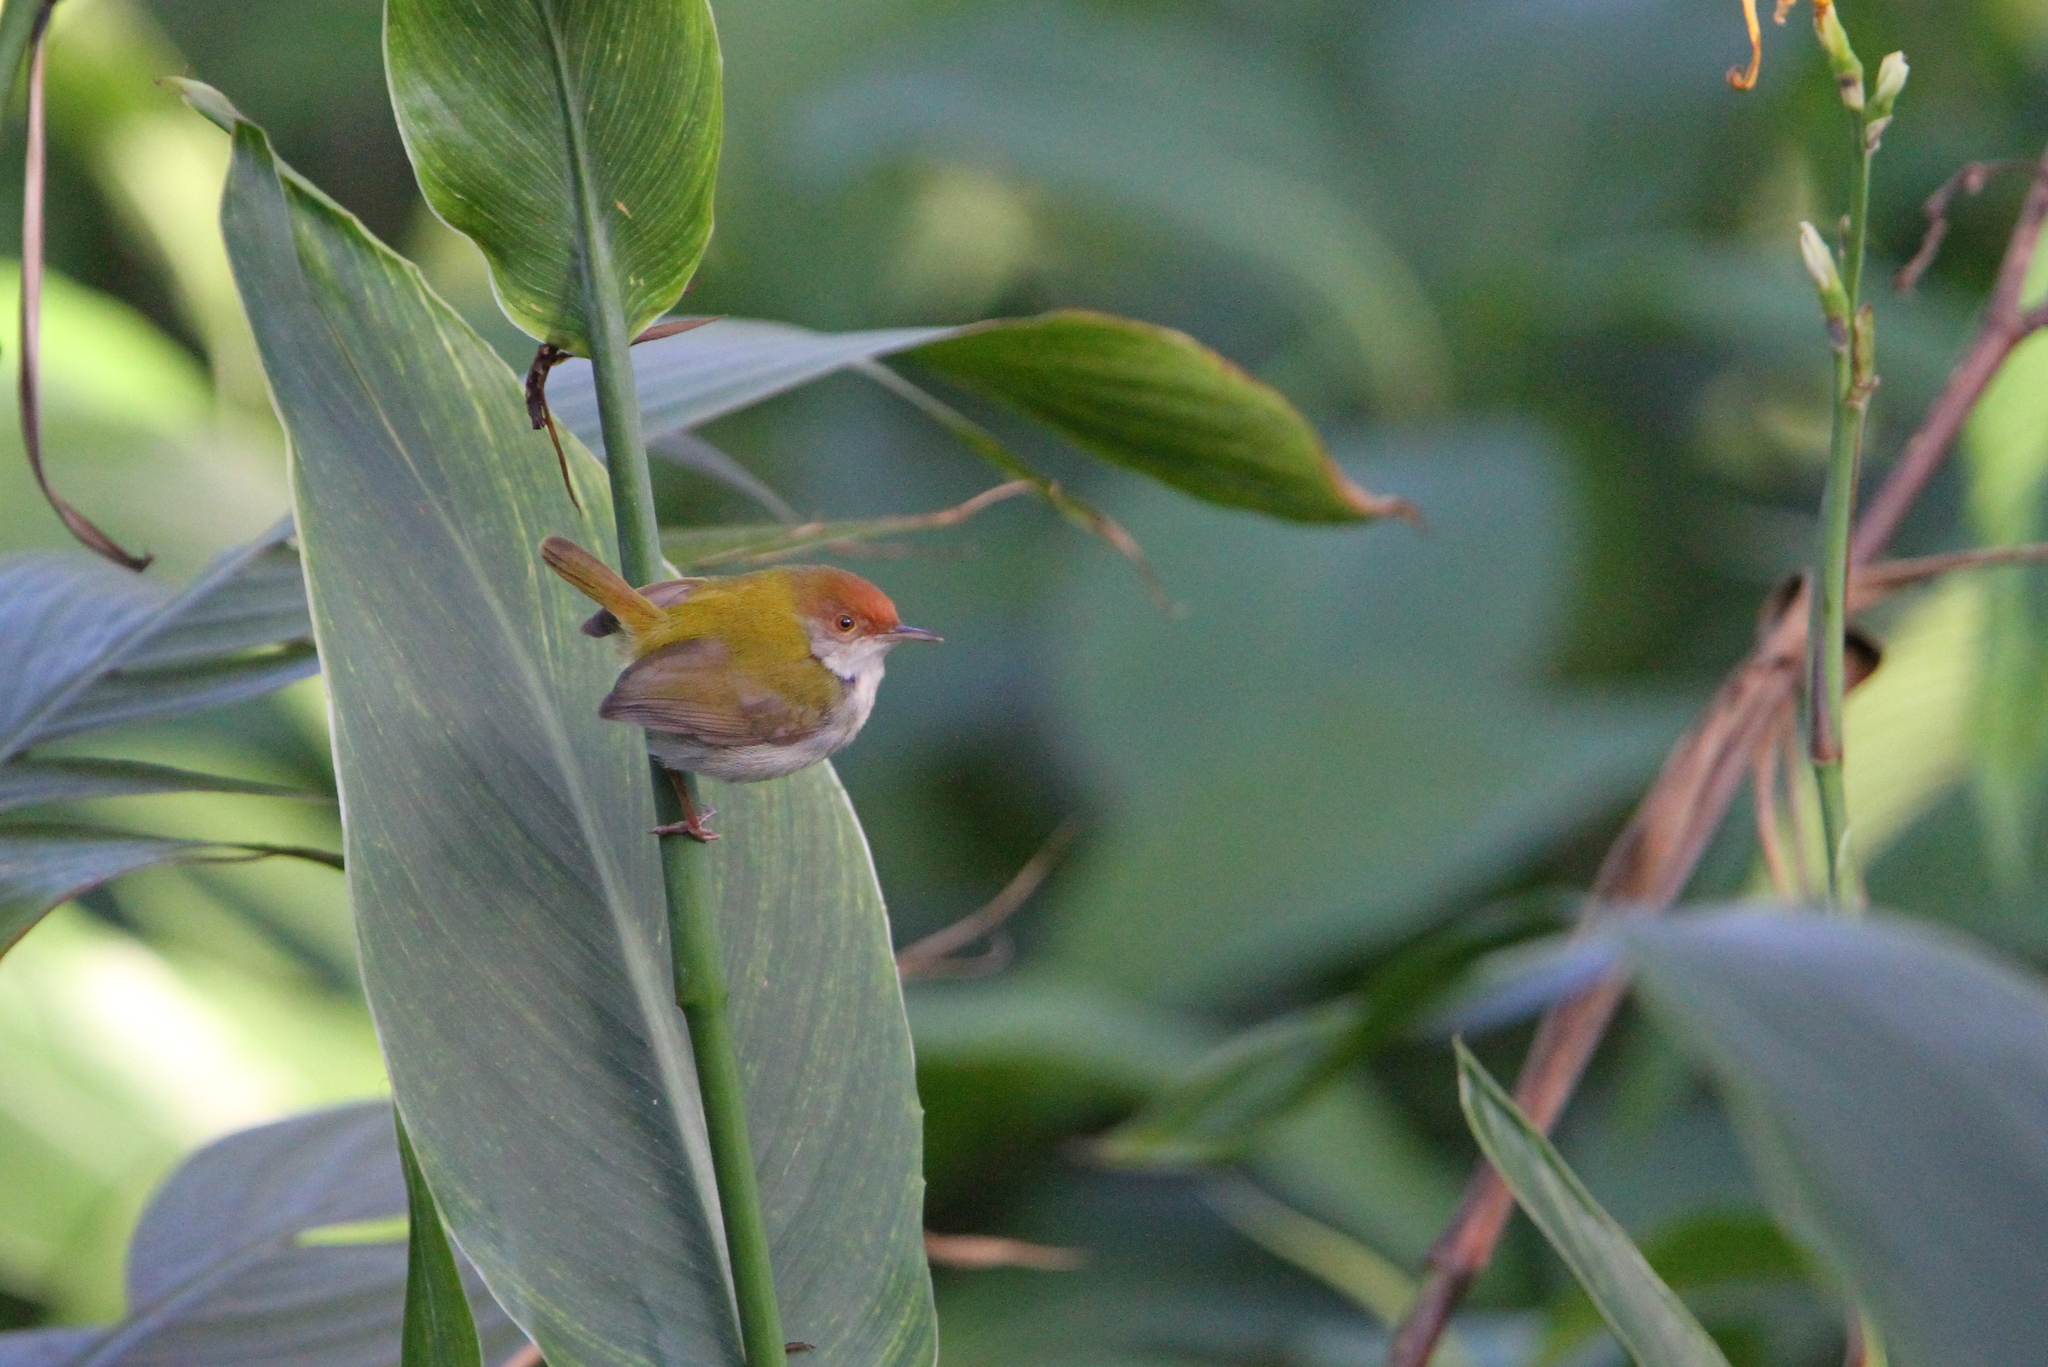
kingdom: Animalia
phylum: Chordata
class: Aves
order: Passeriformes
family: Cisticolidae
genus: Orthotomus
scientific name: Orthotomus sutorius
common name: Common tailorbird
